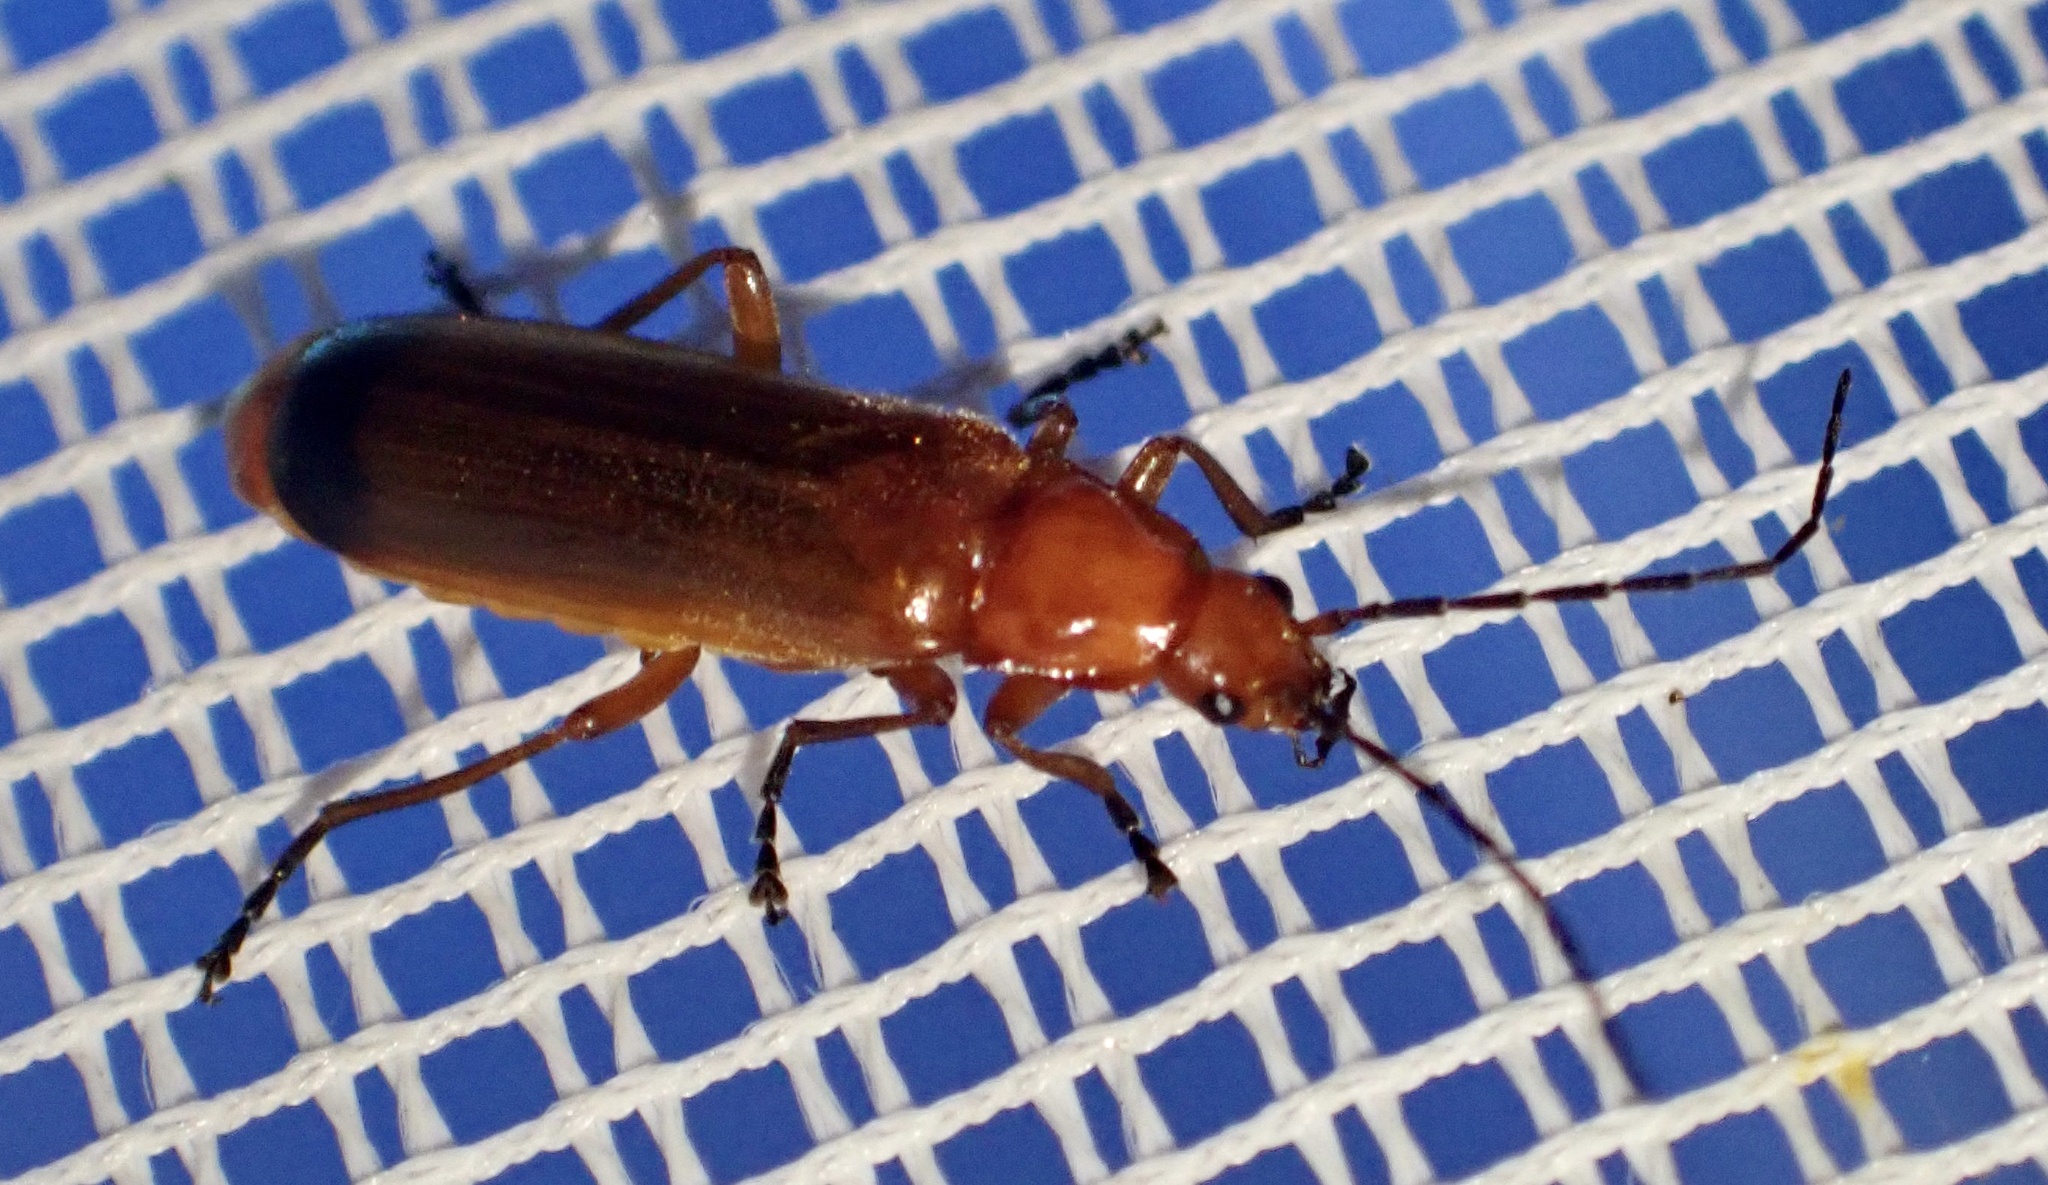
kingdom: Animalia
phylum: Arthropoda
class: Insecta
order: Coleoptera
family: Cantharidae
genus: Rhagonycha
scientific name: Rhagonycha fulva
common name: Common red soldier beetle
